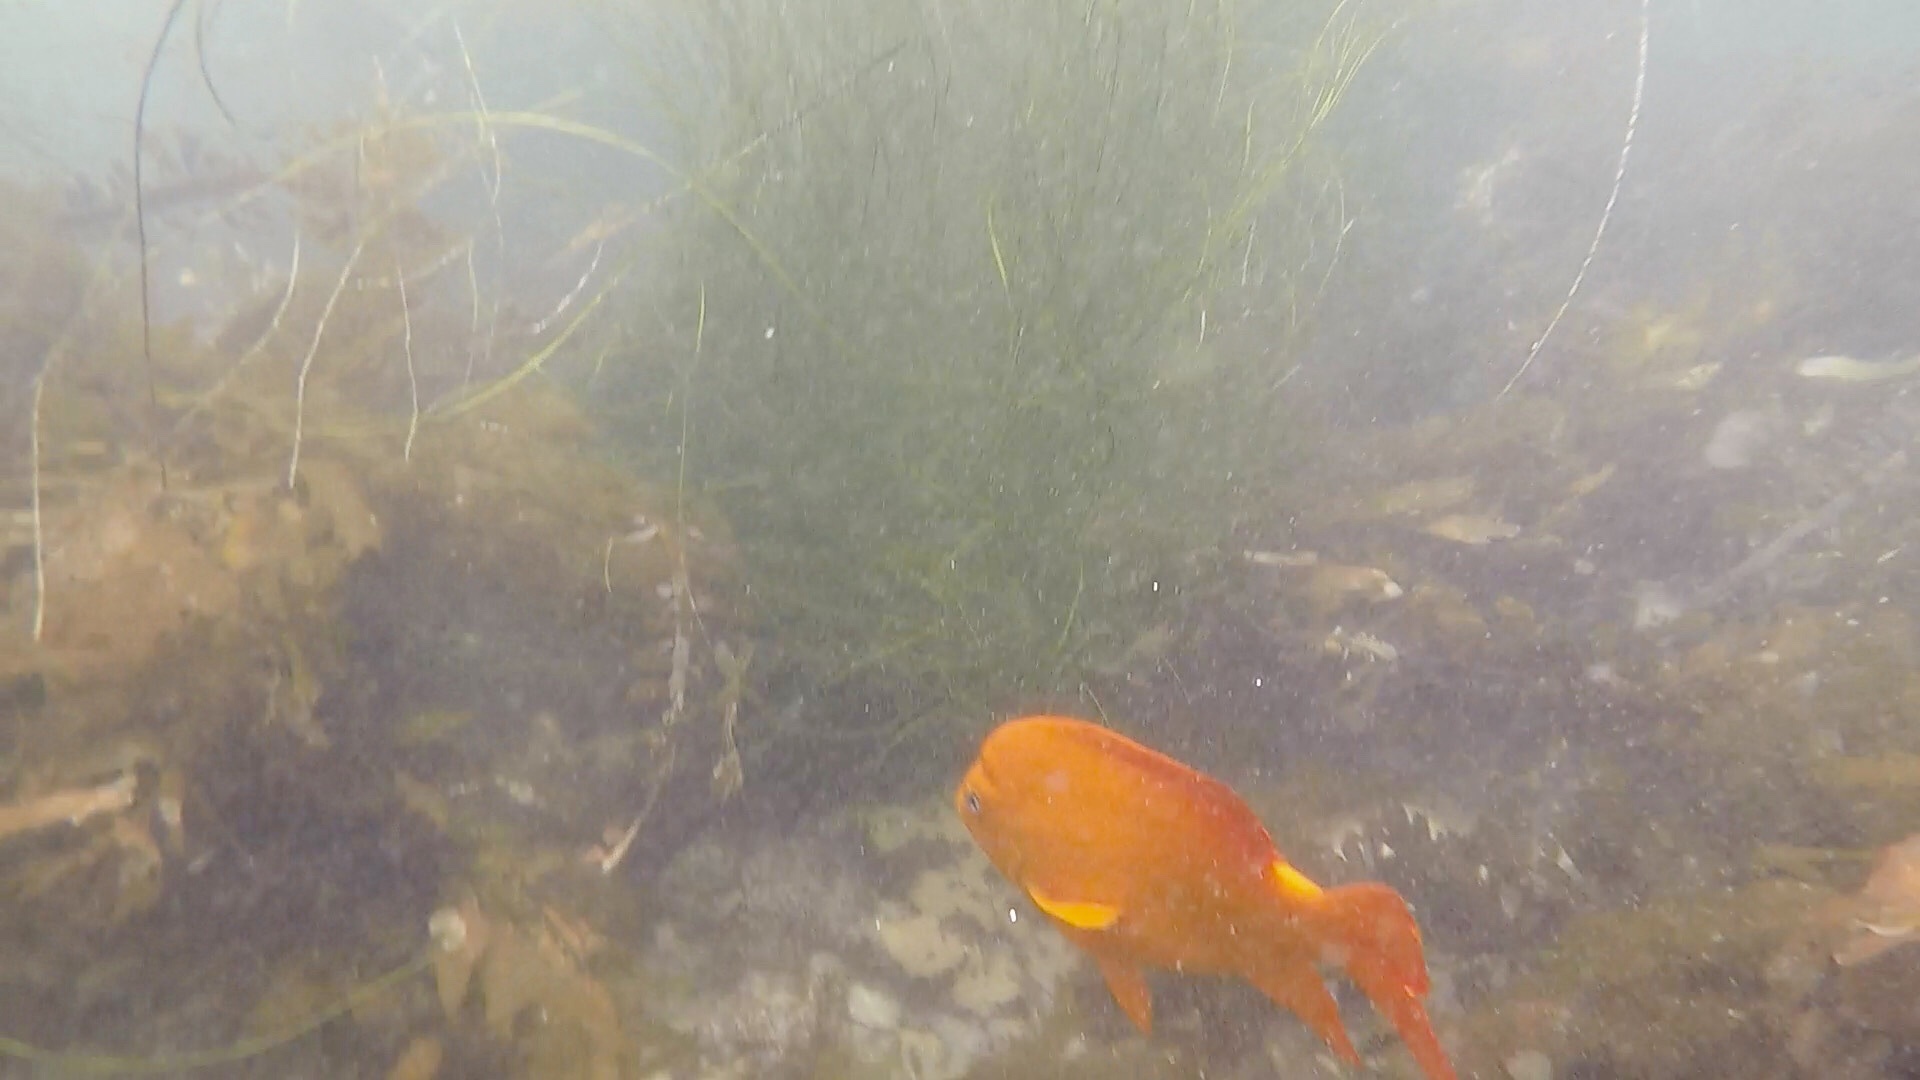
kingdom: Animalia
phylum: Chordata
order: Perciformes
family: Pomacentridae
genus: Hypsypops
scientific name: Hypsypops rubicundus
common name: Garibaldi
